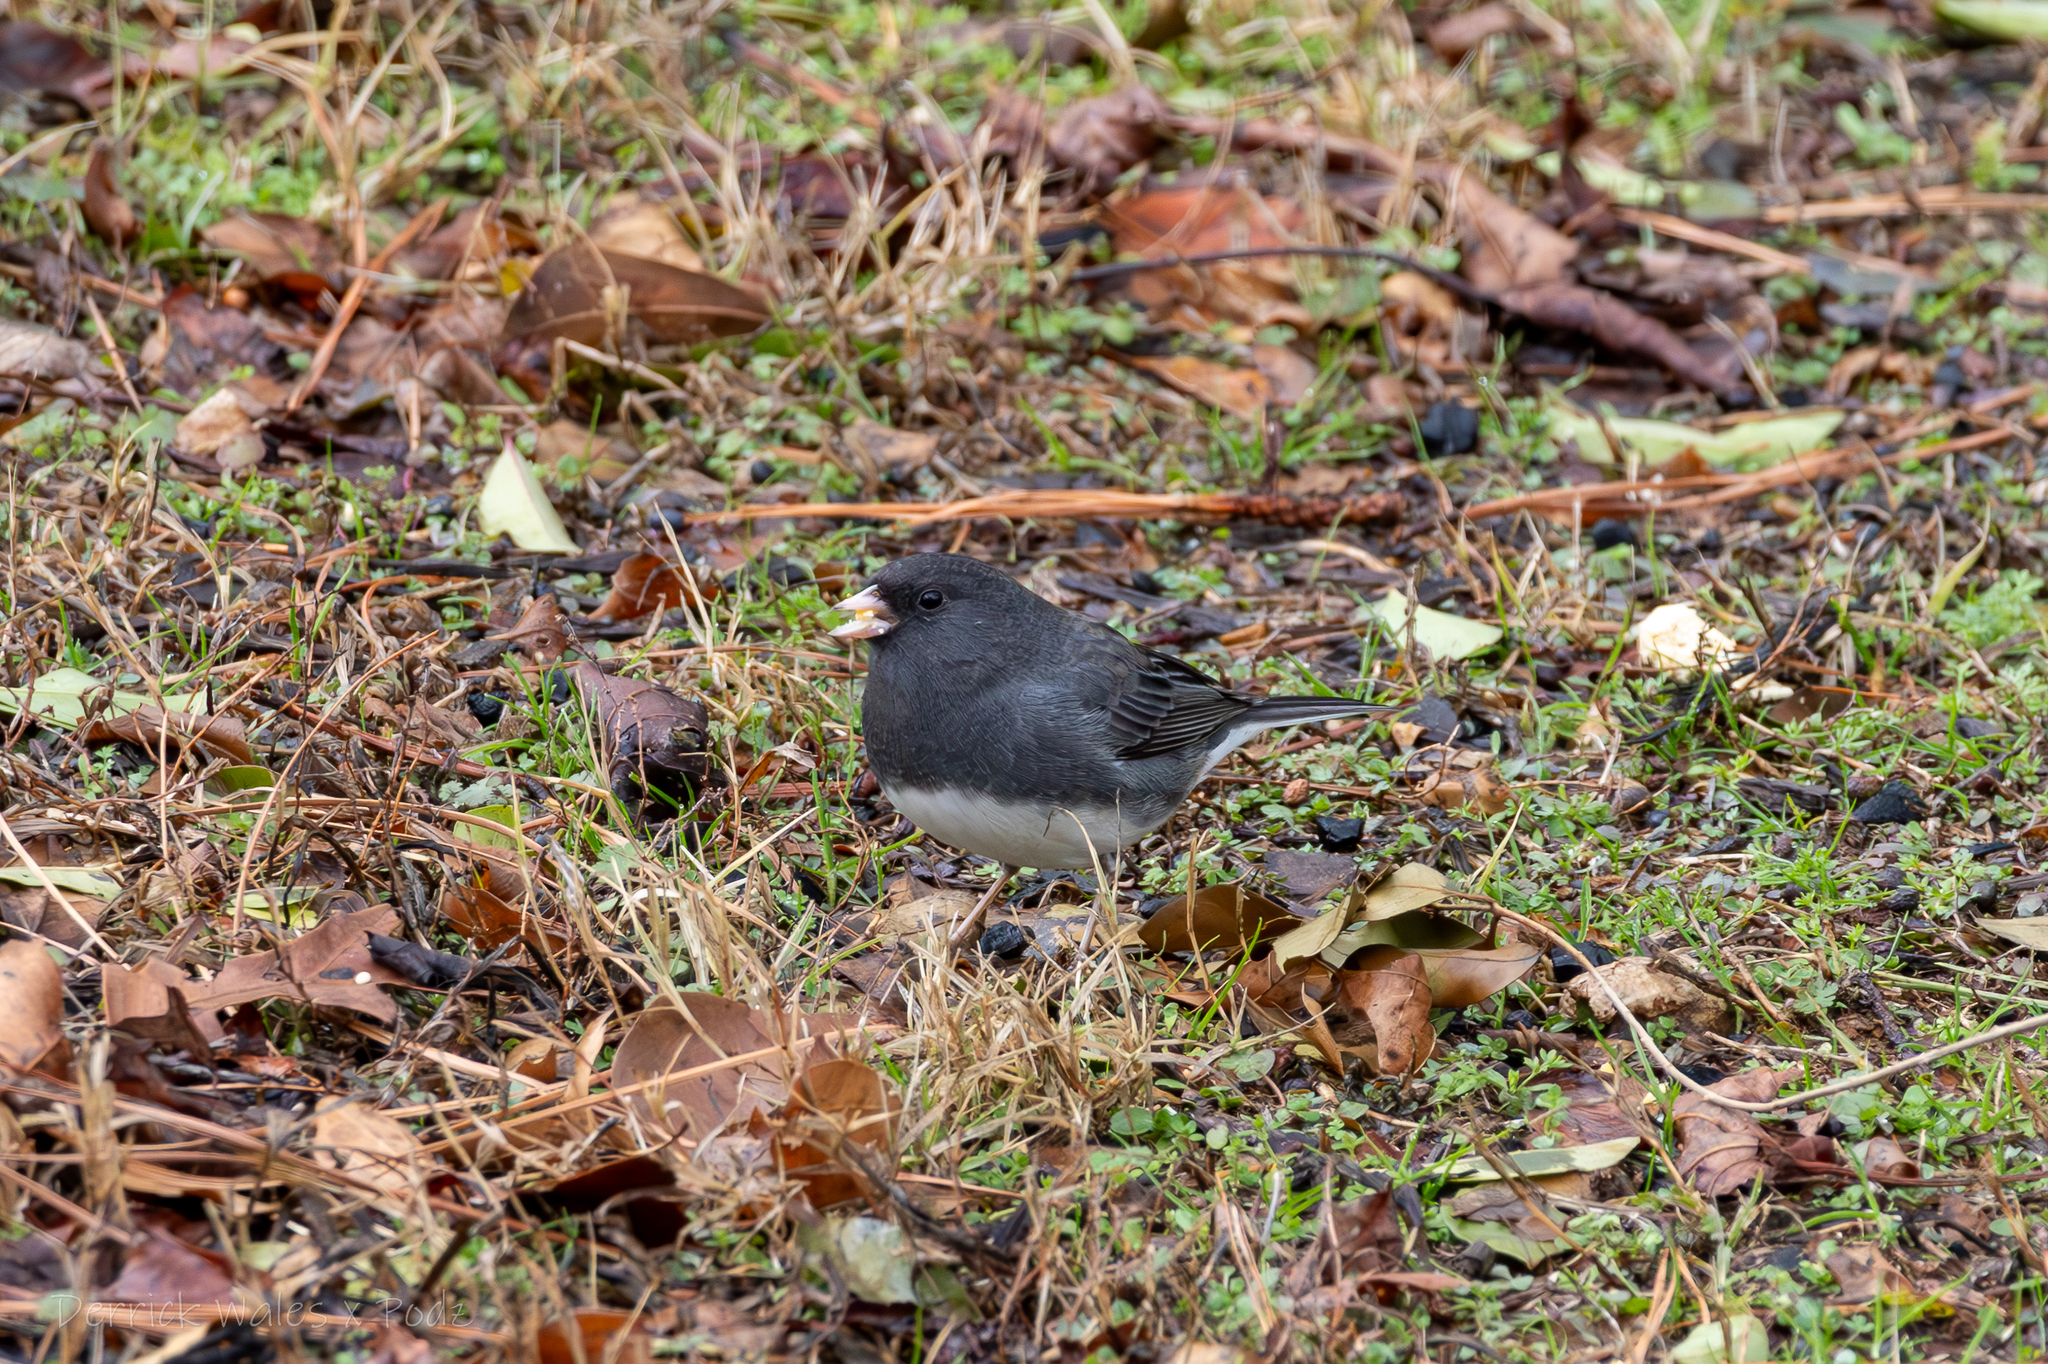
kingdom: Animalia
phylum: Chordata
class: Aves
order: Passeriformes
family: Passerellidae
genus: Junco
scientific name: Junco hyemalis
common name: Dark-eyed junco
